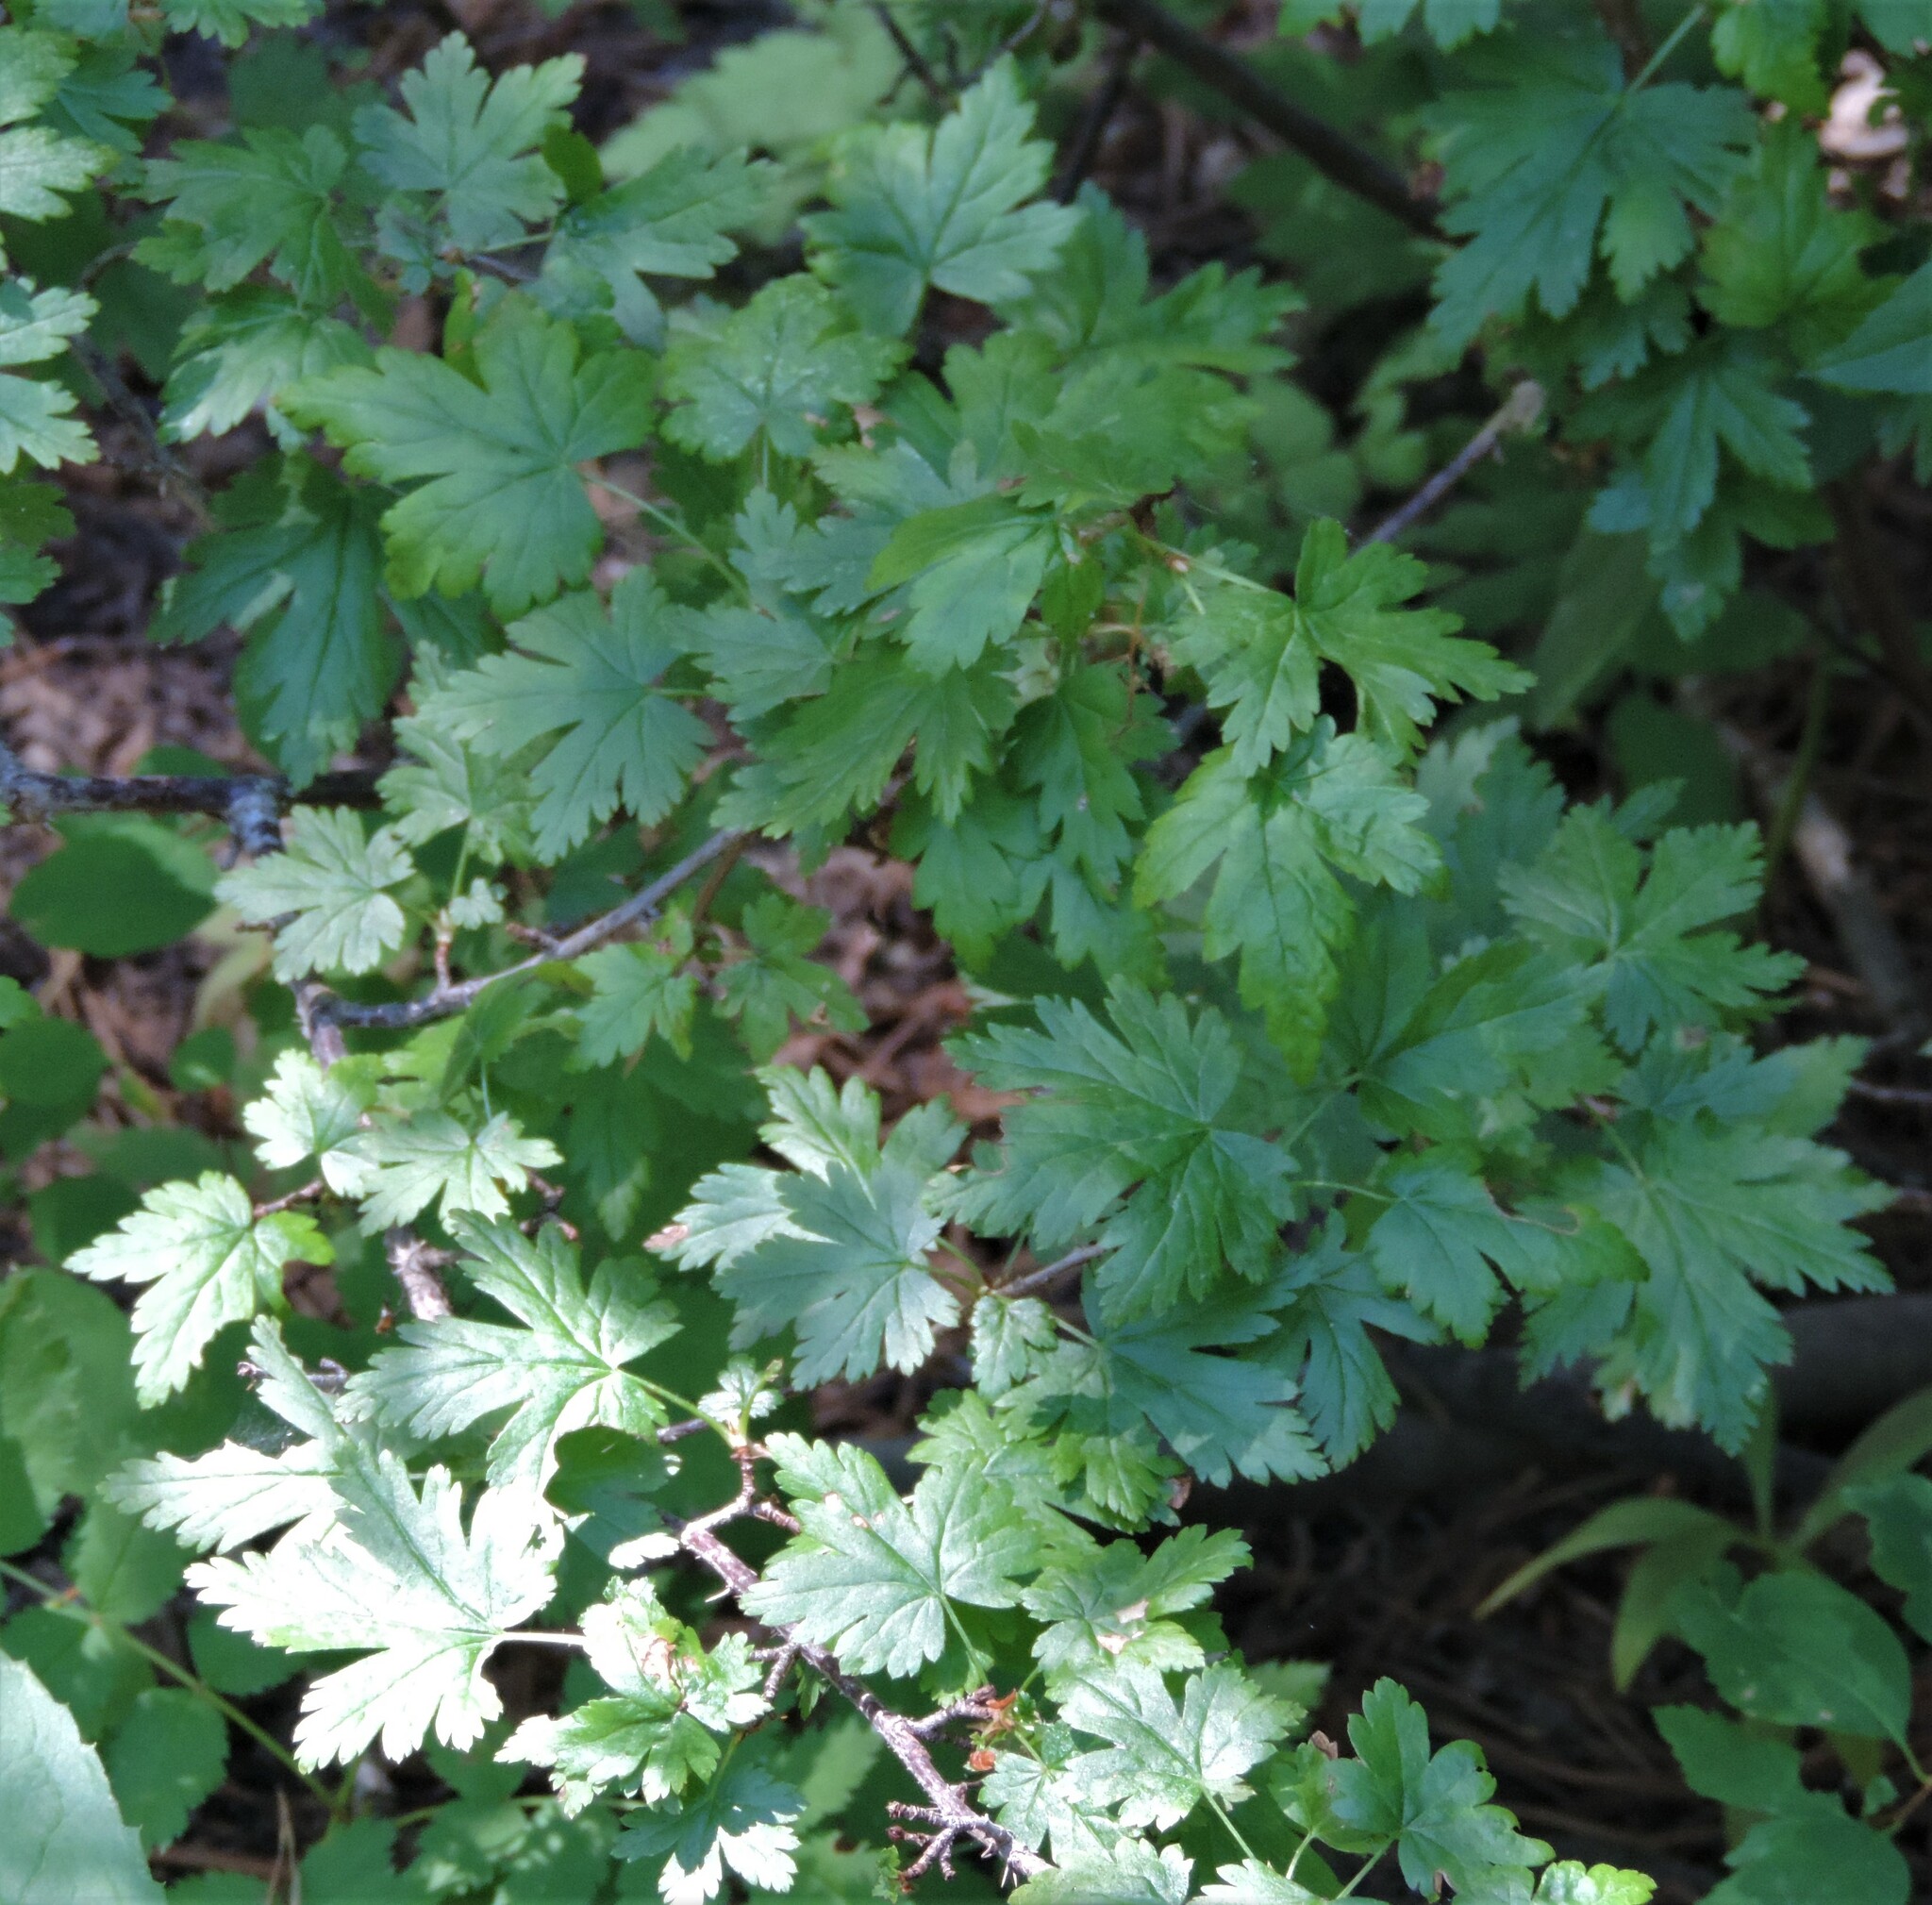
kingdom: Plantae
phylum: Tracheophyta
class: Magnoliopsida
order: Saxifragales
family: Grossulariaceae
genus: Ribes
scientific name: Ribes lacustre
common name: Black gooseberry
